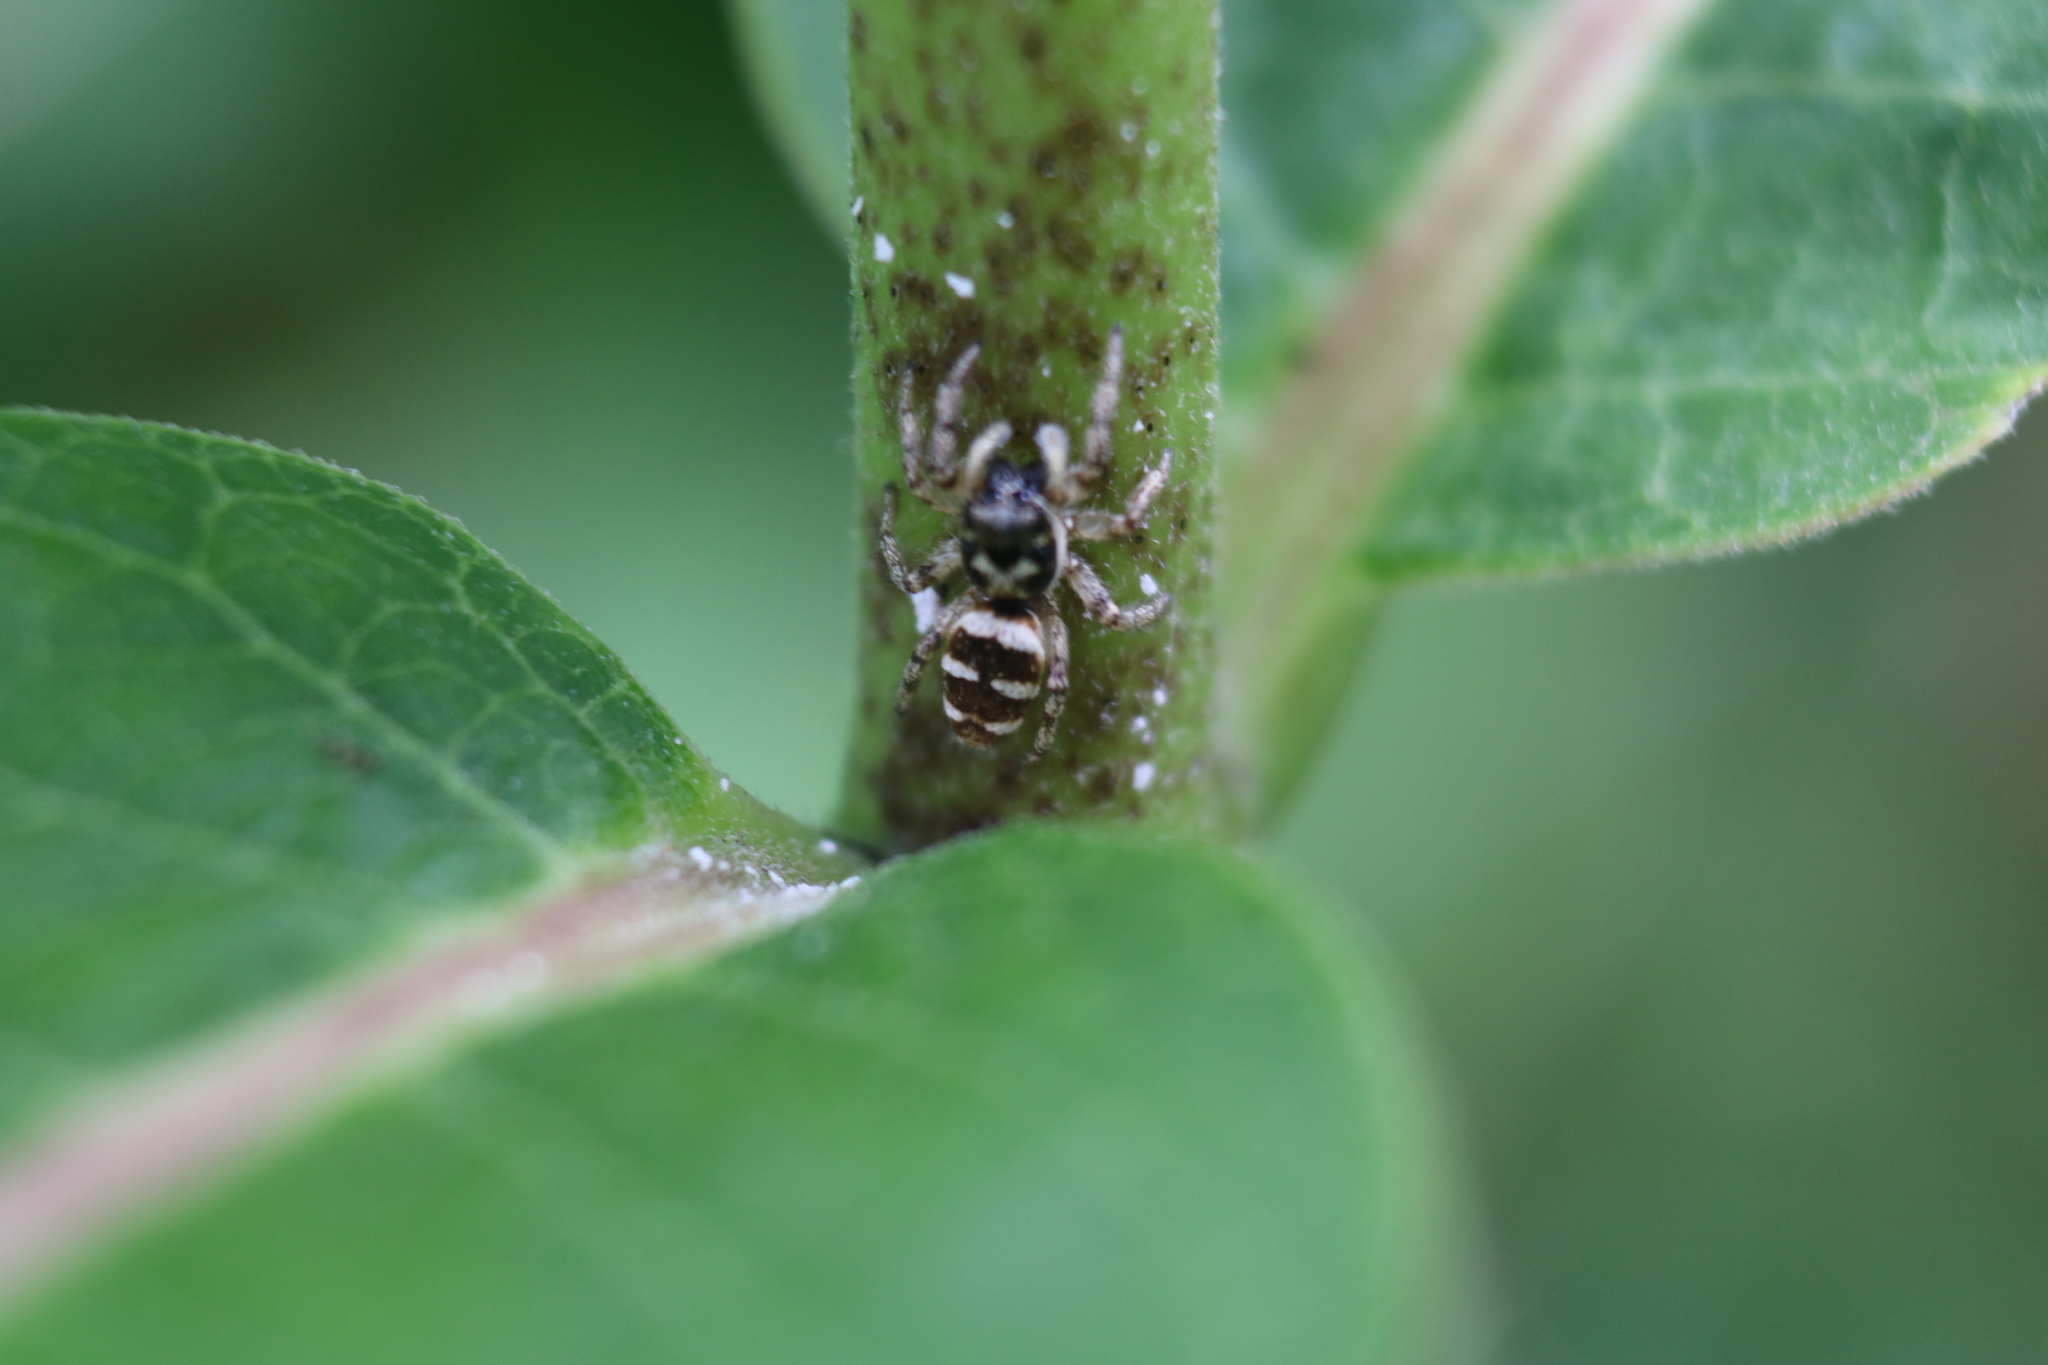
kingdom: Animalia
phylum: Arthropoda
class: Arachnida
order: Araneae
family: Salticidae
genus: Salticus
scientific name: Salticus scenicus
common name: Zebra jumper
